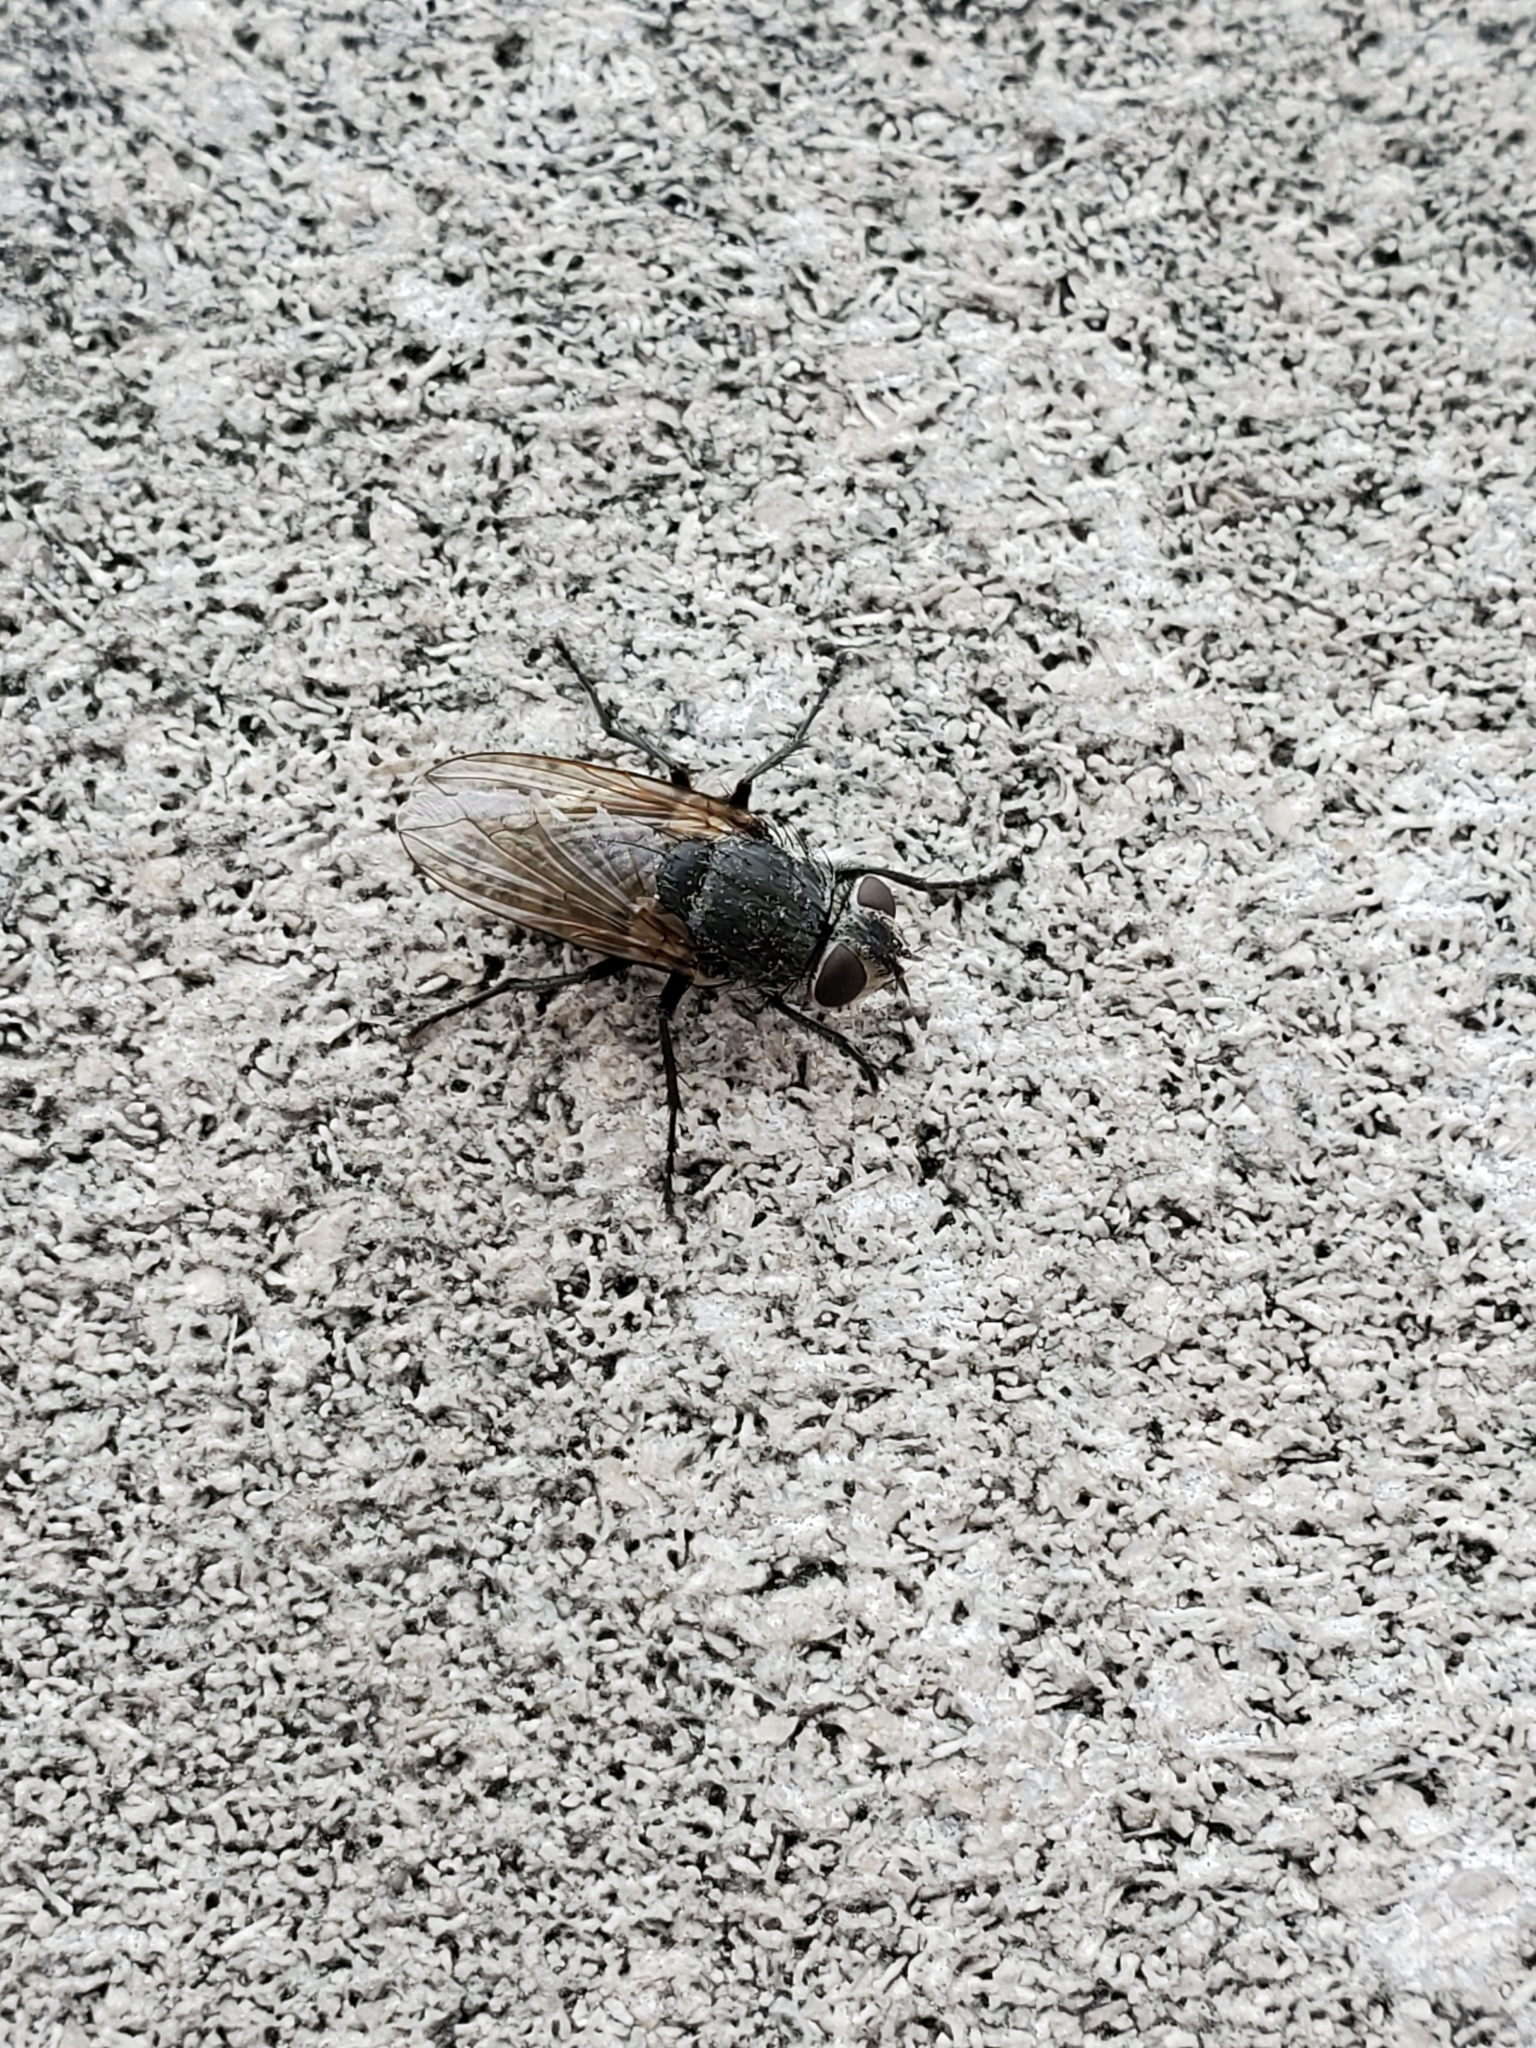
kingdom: Animalia
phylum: Arthropoda
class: Insecta
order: Diptera
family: Polleniidae
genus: Pollenia
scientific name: Pollenia
